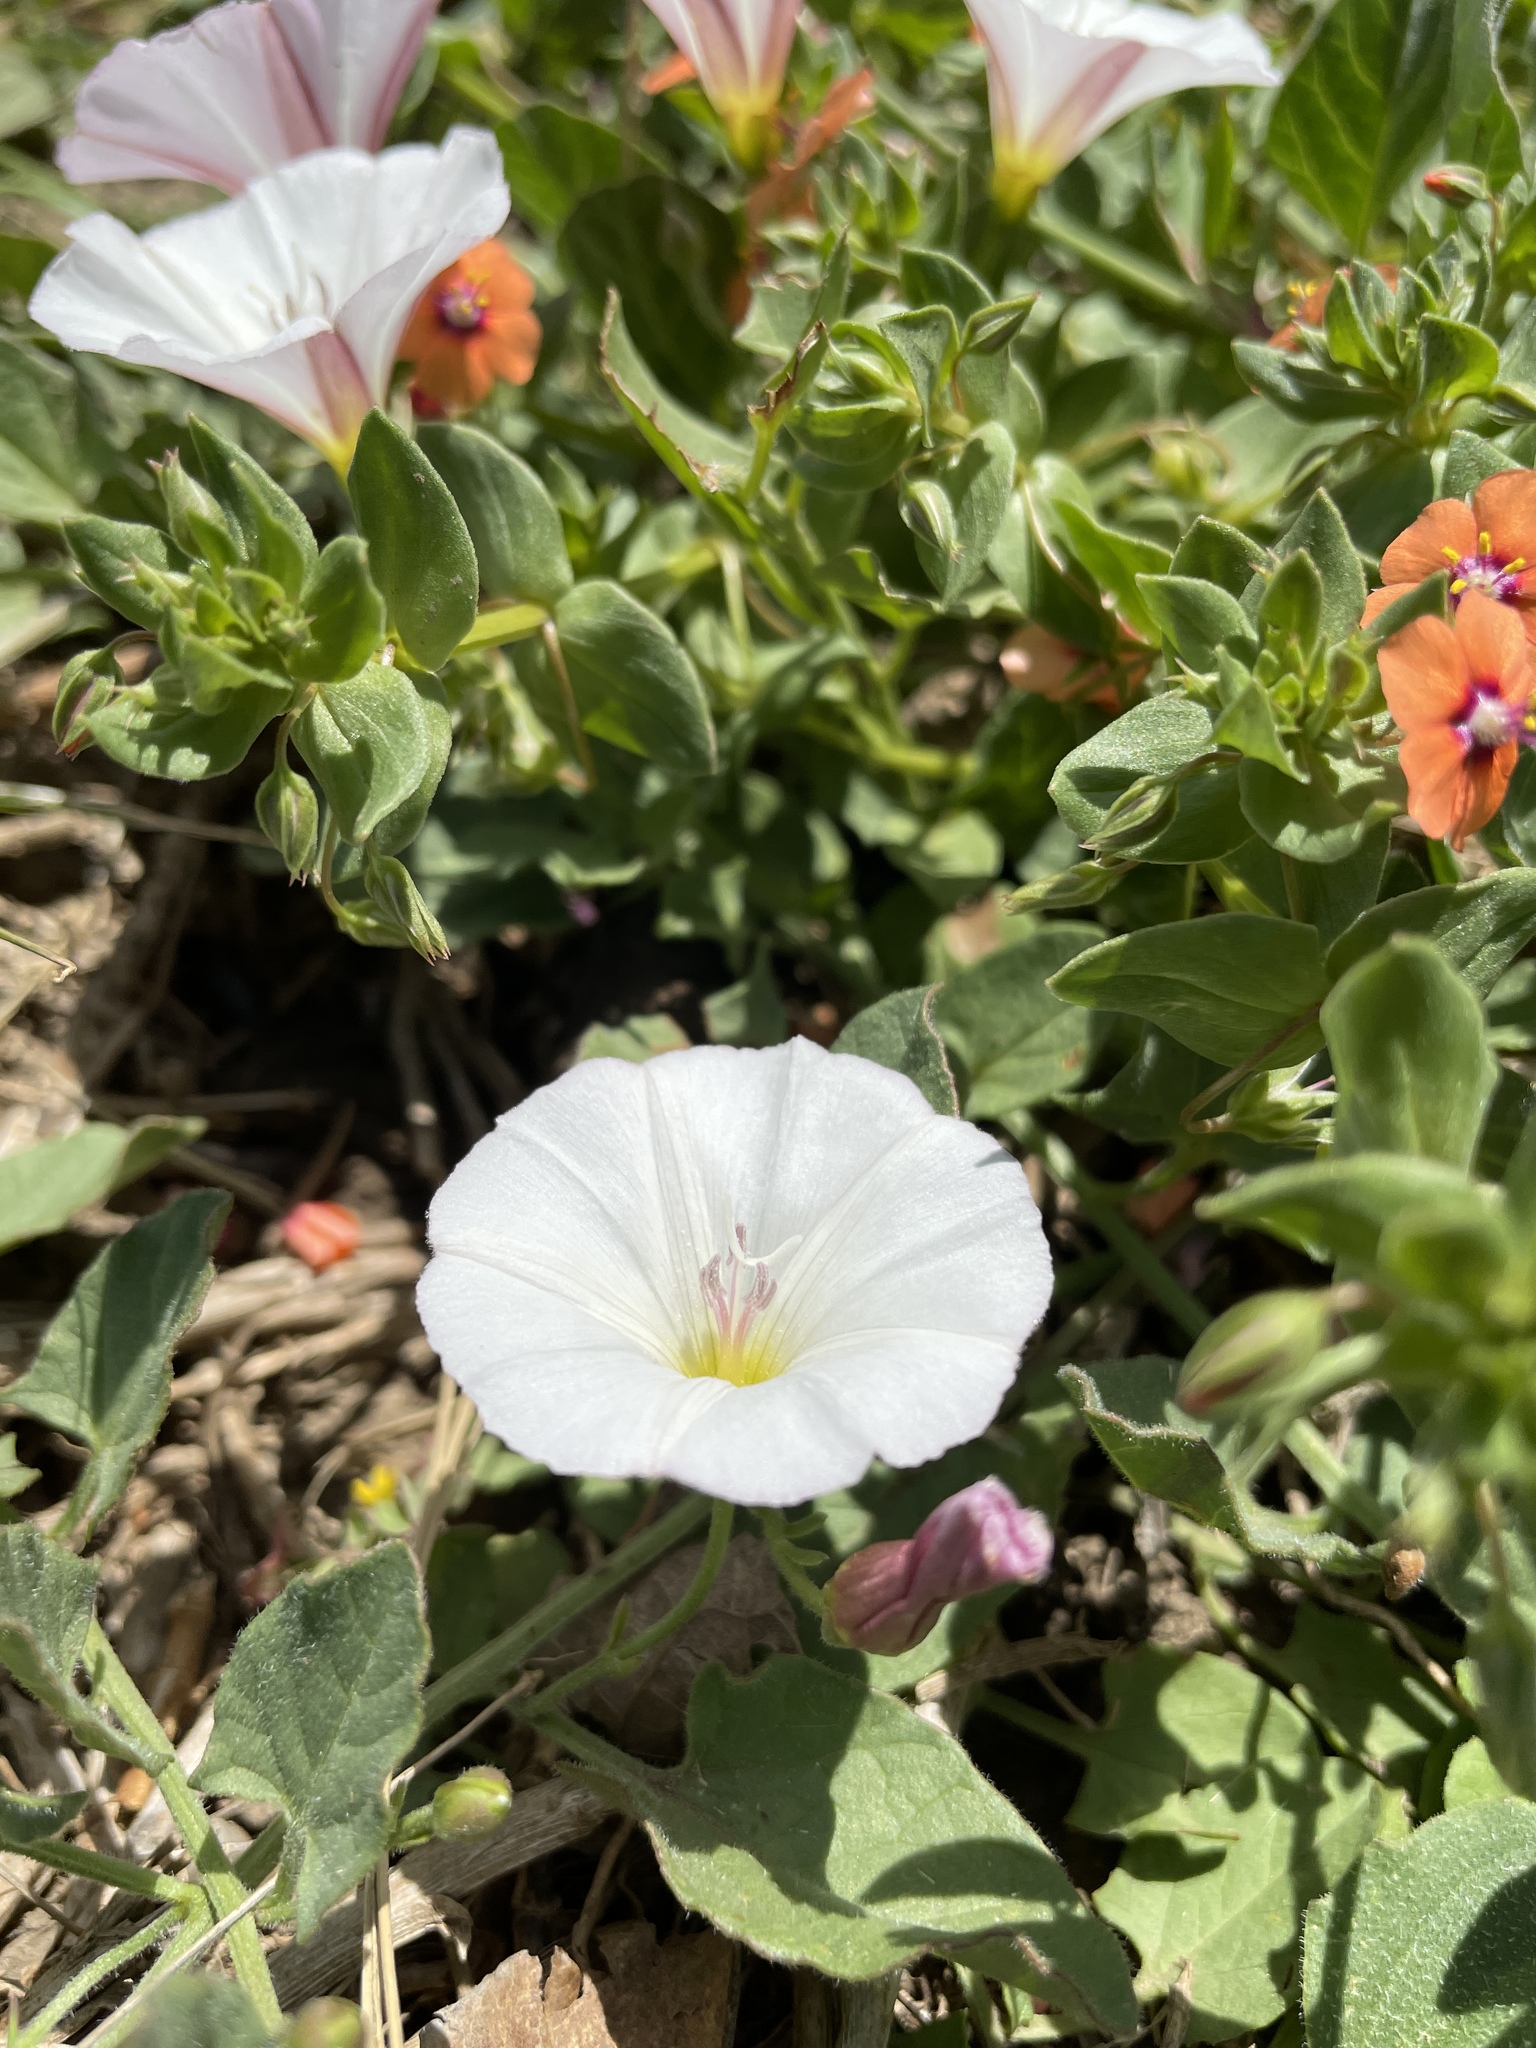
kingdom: Plantae
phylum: Tracheophyta
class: Magnoliopsida
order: Solanales
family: Convolvulaceae
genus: Convolvulus
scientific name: Convolvulus arvensis
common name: Field bindweed
